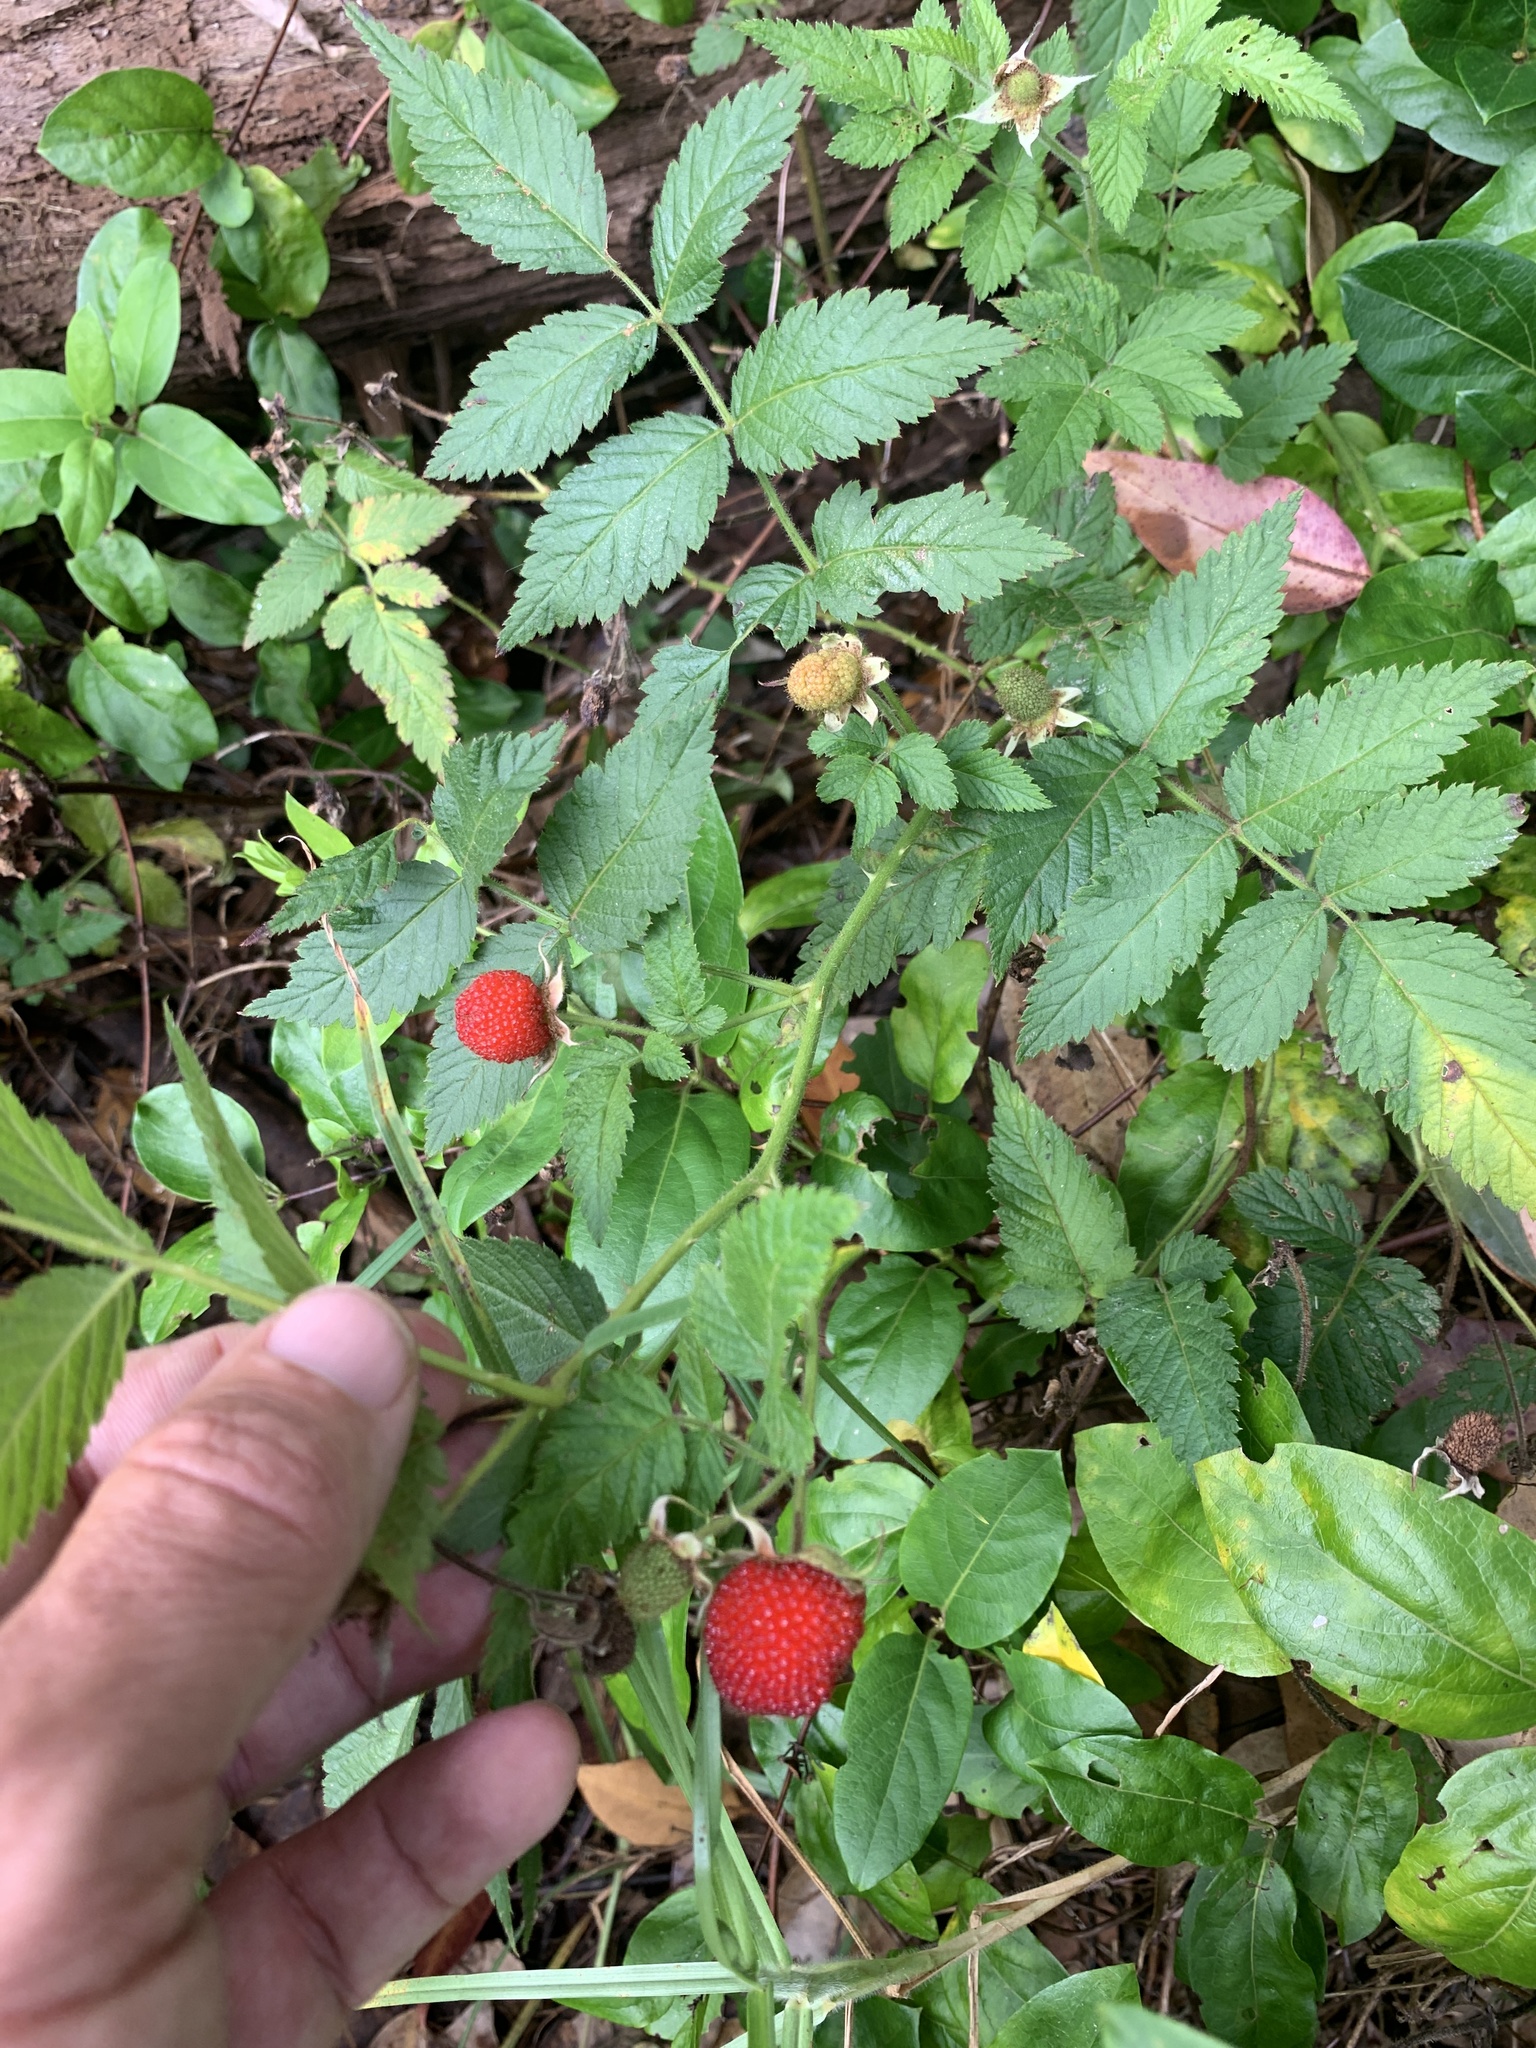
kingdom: Plantae
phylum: Tracheophyta
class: Magnoliopsida
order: Rosales
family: Rosaceae
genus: Rubus
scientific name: Rubus rosifolius
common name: Roseleaf raspberry
